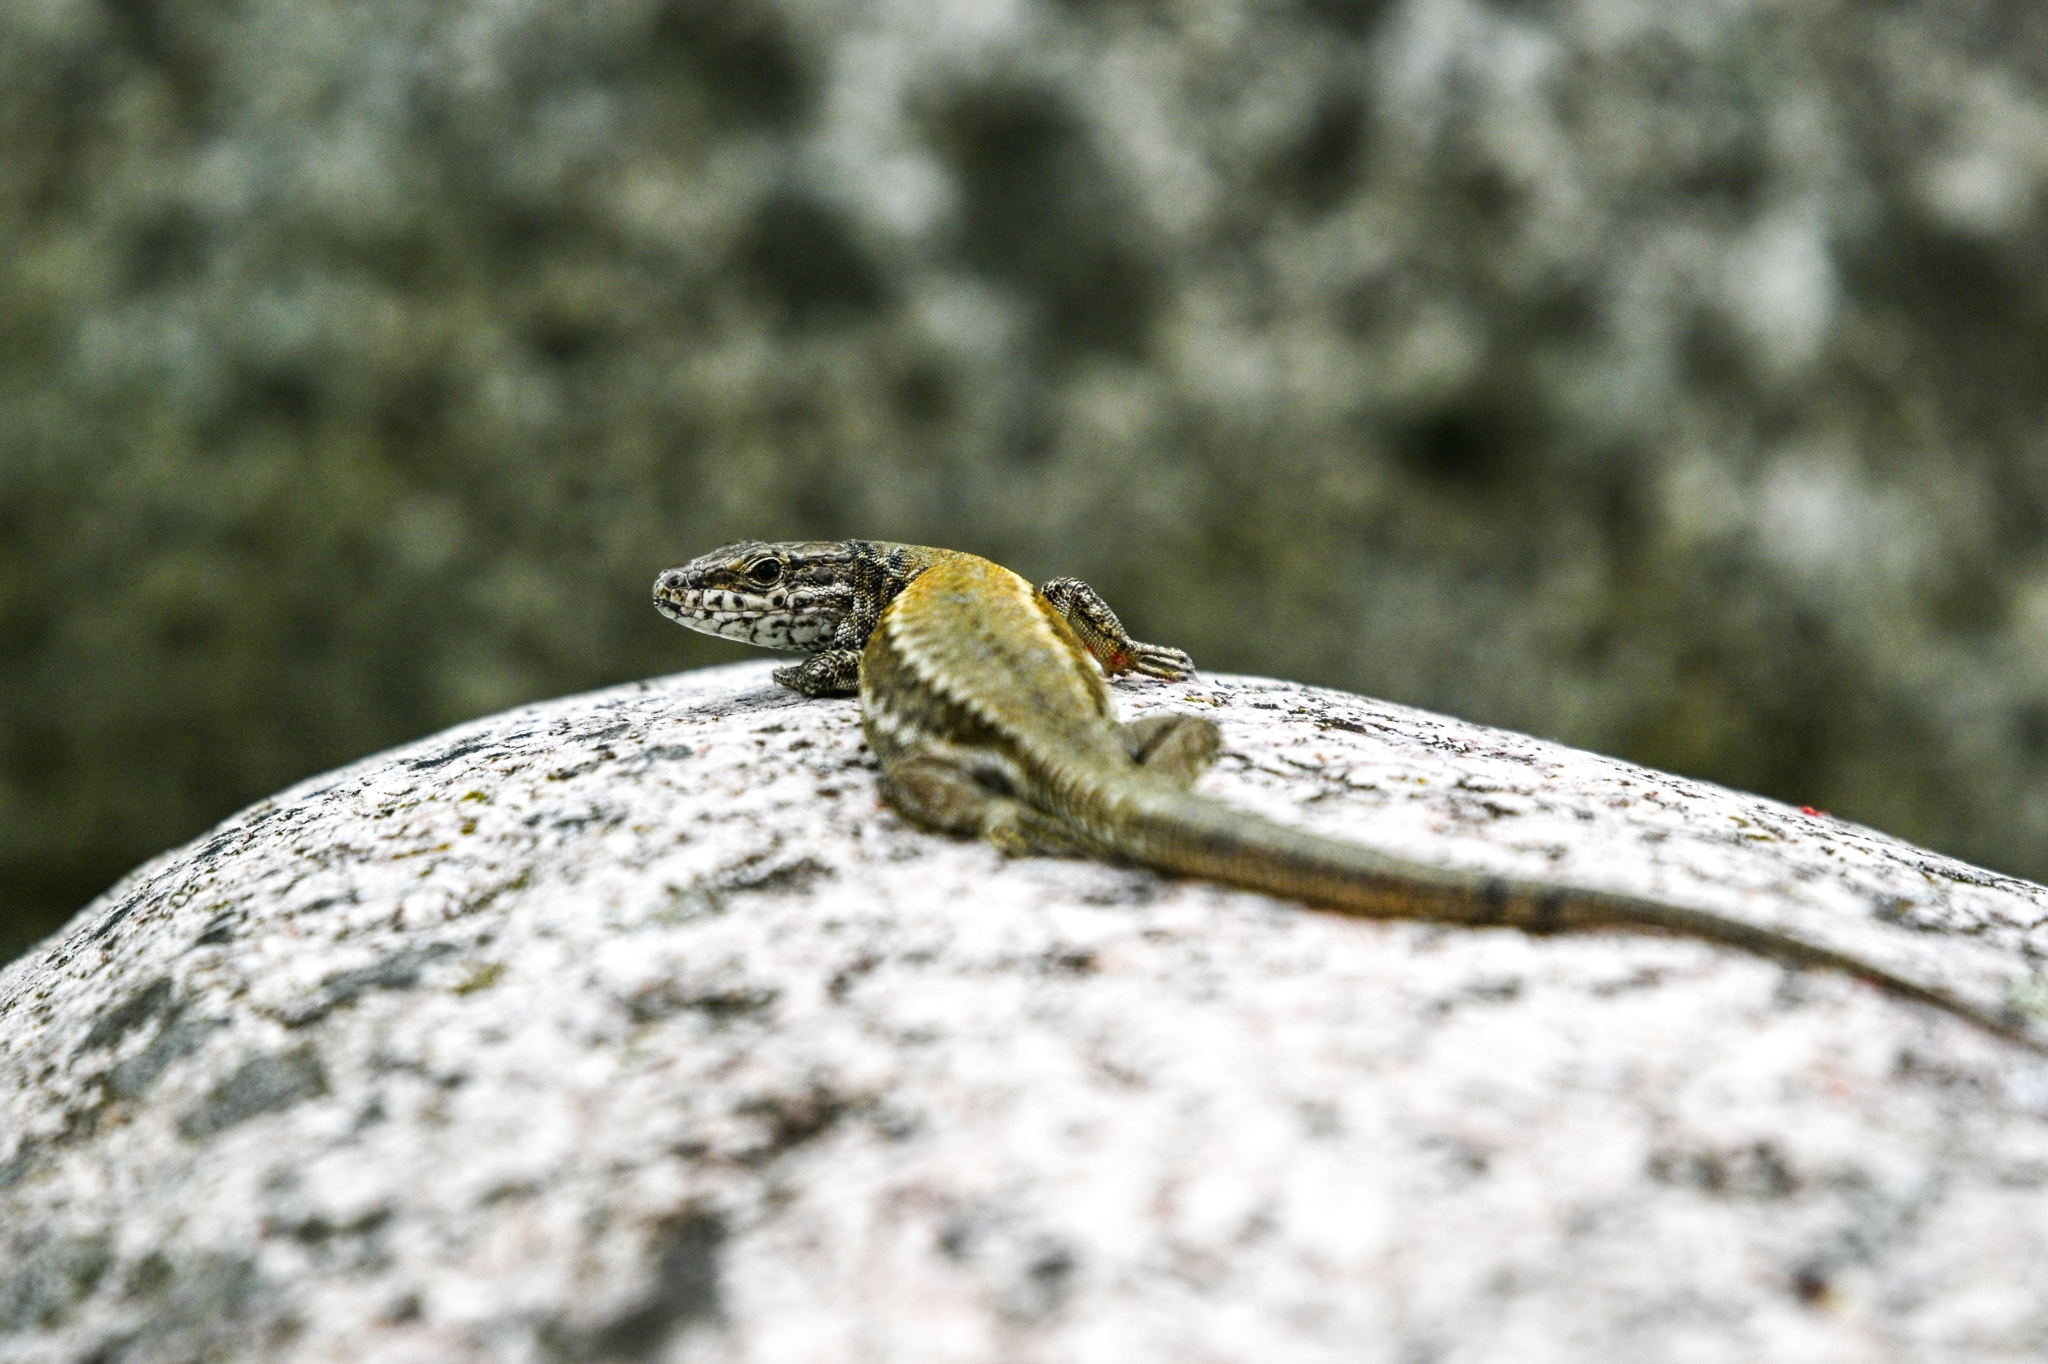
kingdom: Animalia
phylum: Chordata
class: Squamata
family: Lacertidae
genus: Podarcis
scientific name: Podarcis muralis
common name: Common wall lizard
